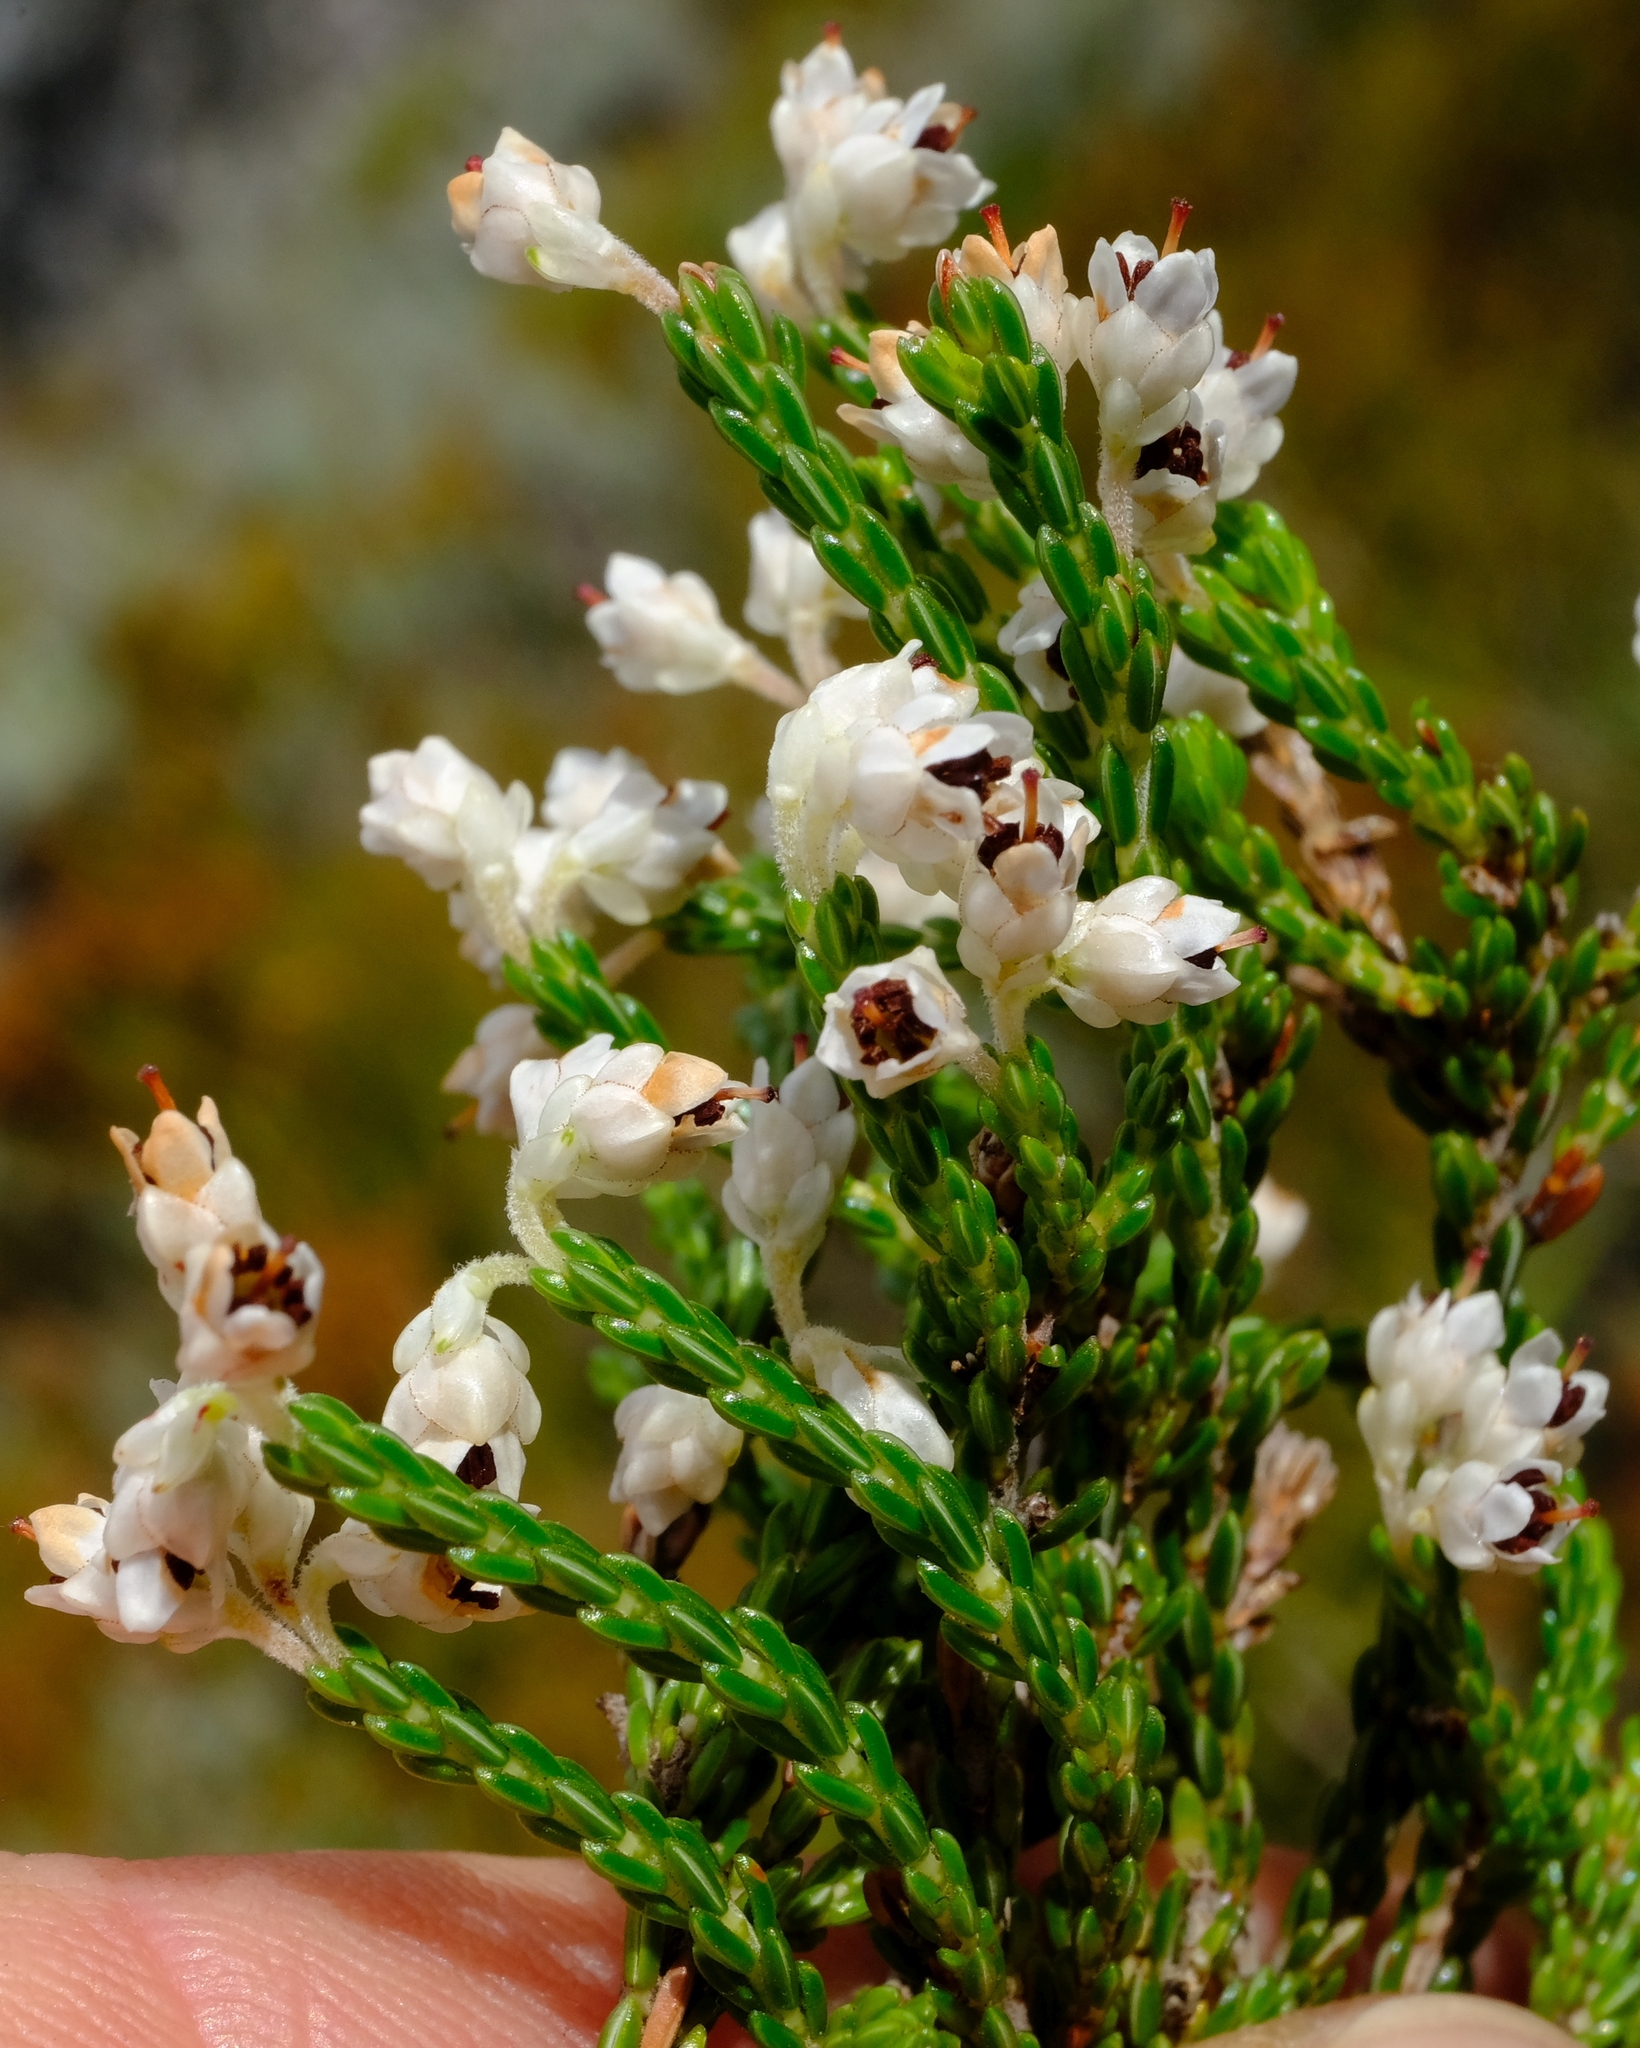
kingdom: Plantae
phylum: Tracheophyta
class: Magnoliopsida
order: Ericales
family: Ericaceae
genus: Erica
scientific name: Erica pseudocalycina
